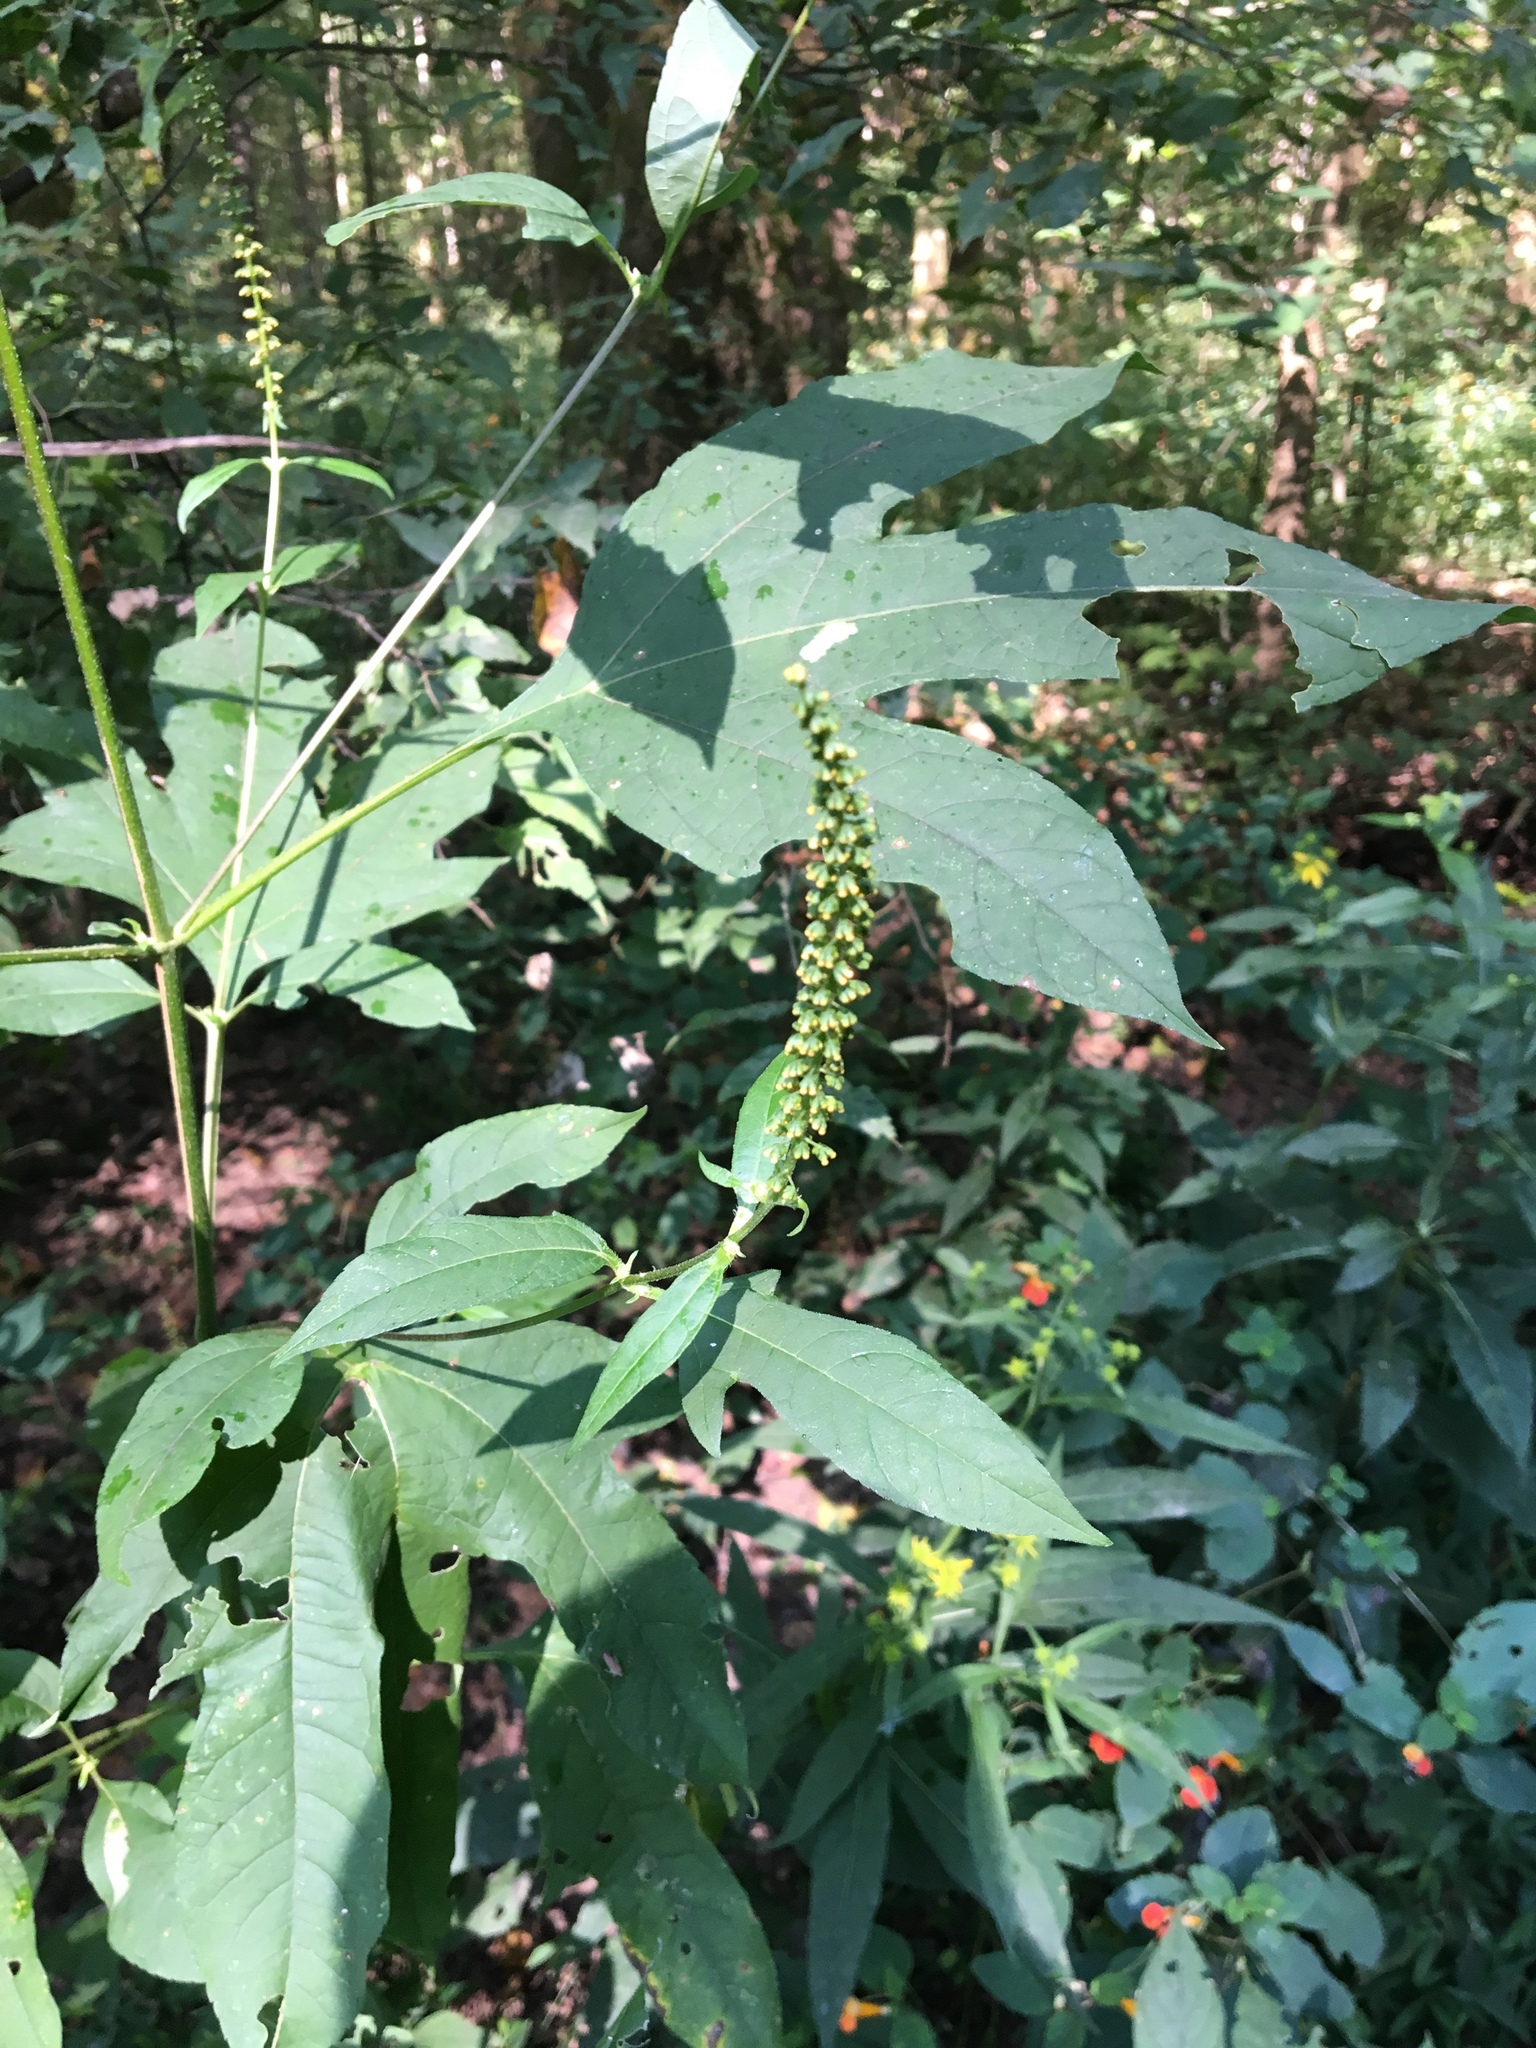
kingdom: Plantae
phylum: Tracheophyta
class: Magnoliopsida
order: Asterales
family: Asteraceae
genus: Ambrosia
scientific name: Ambrosia trifida
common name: Giant ragweed
